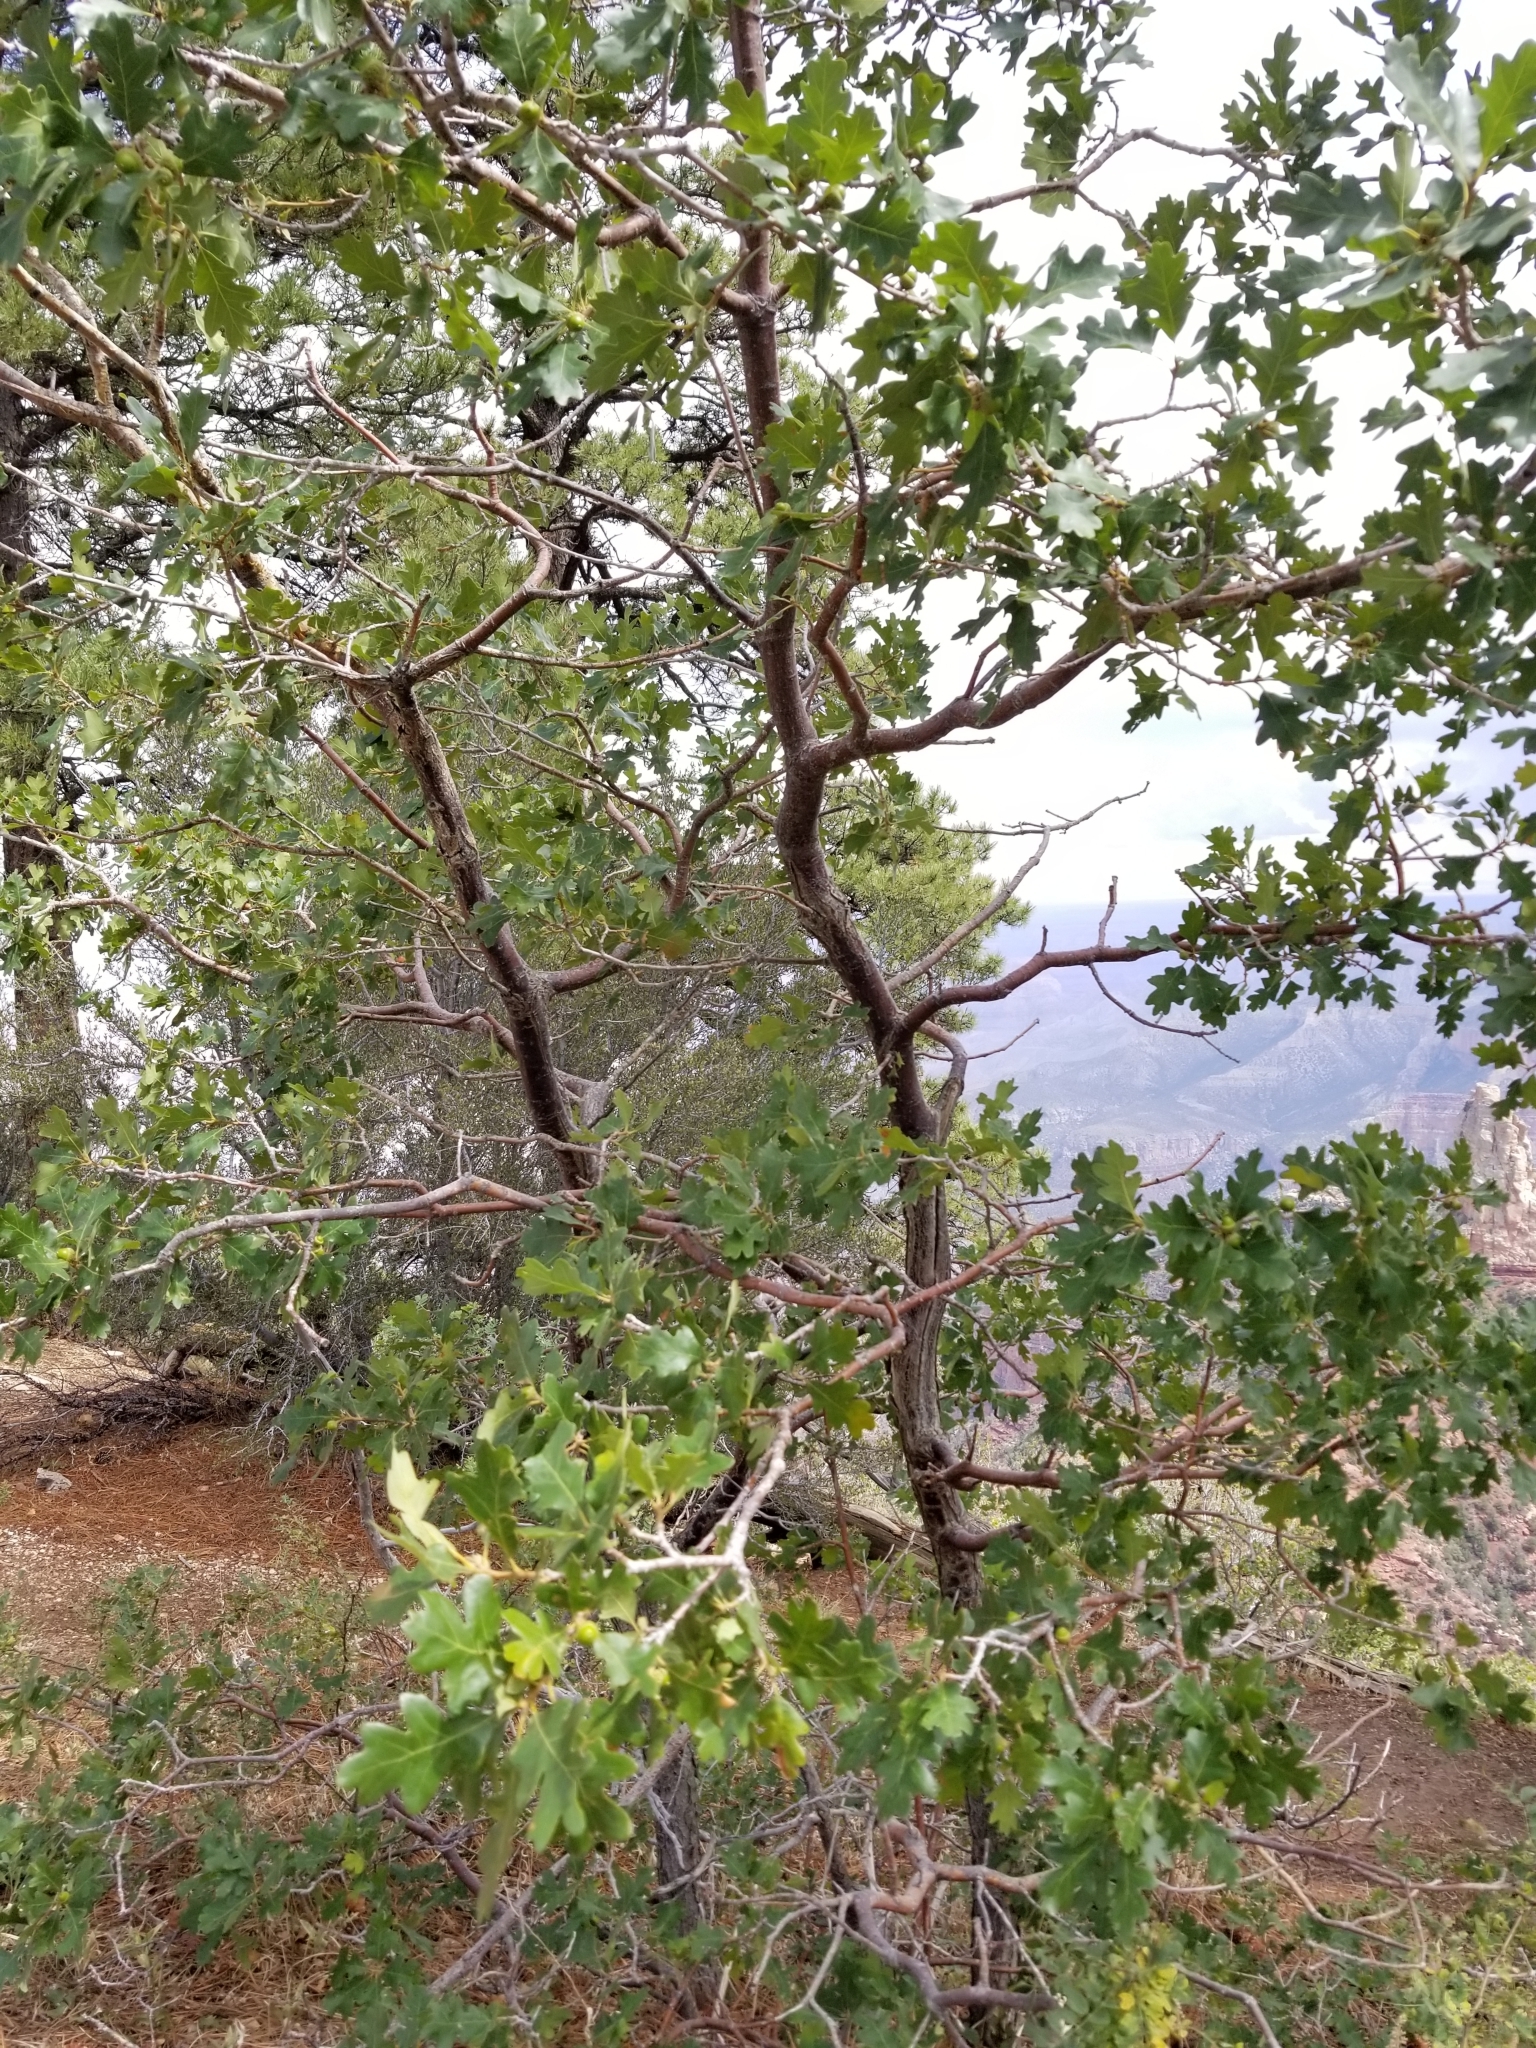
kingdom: Plantae
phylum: Tracheophyta
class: Magnoliopsida
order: Fagales
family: Fagaceae
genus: Quercus
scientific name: Quercus gambelii
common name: Gambel oak
